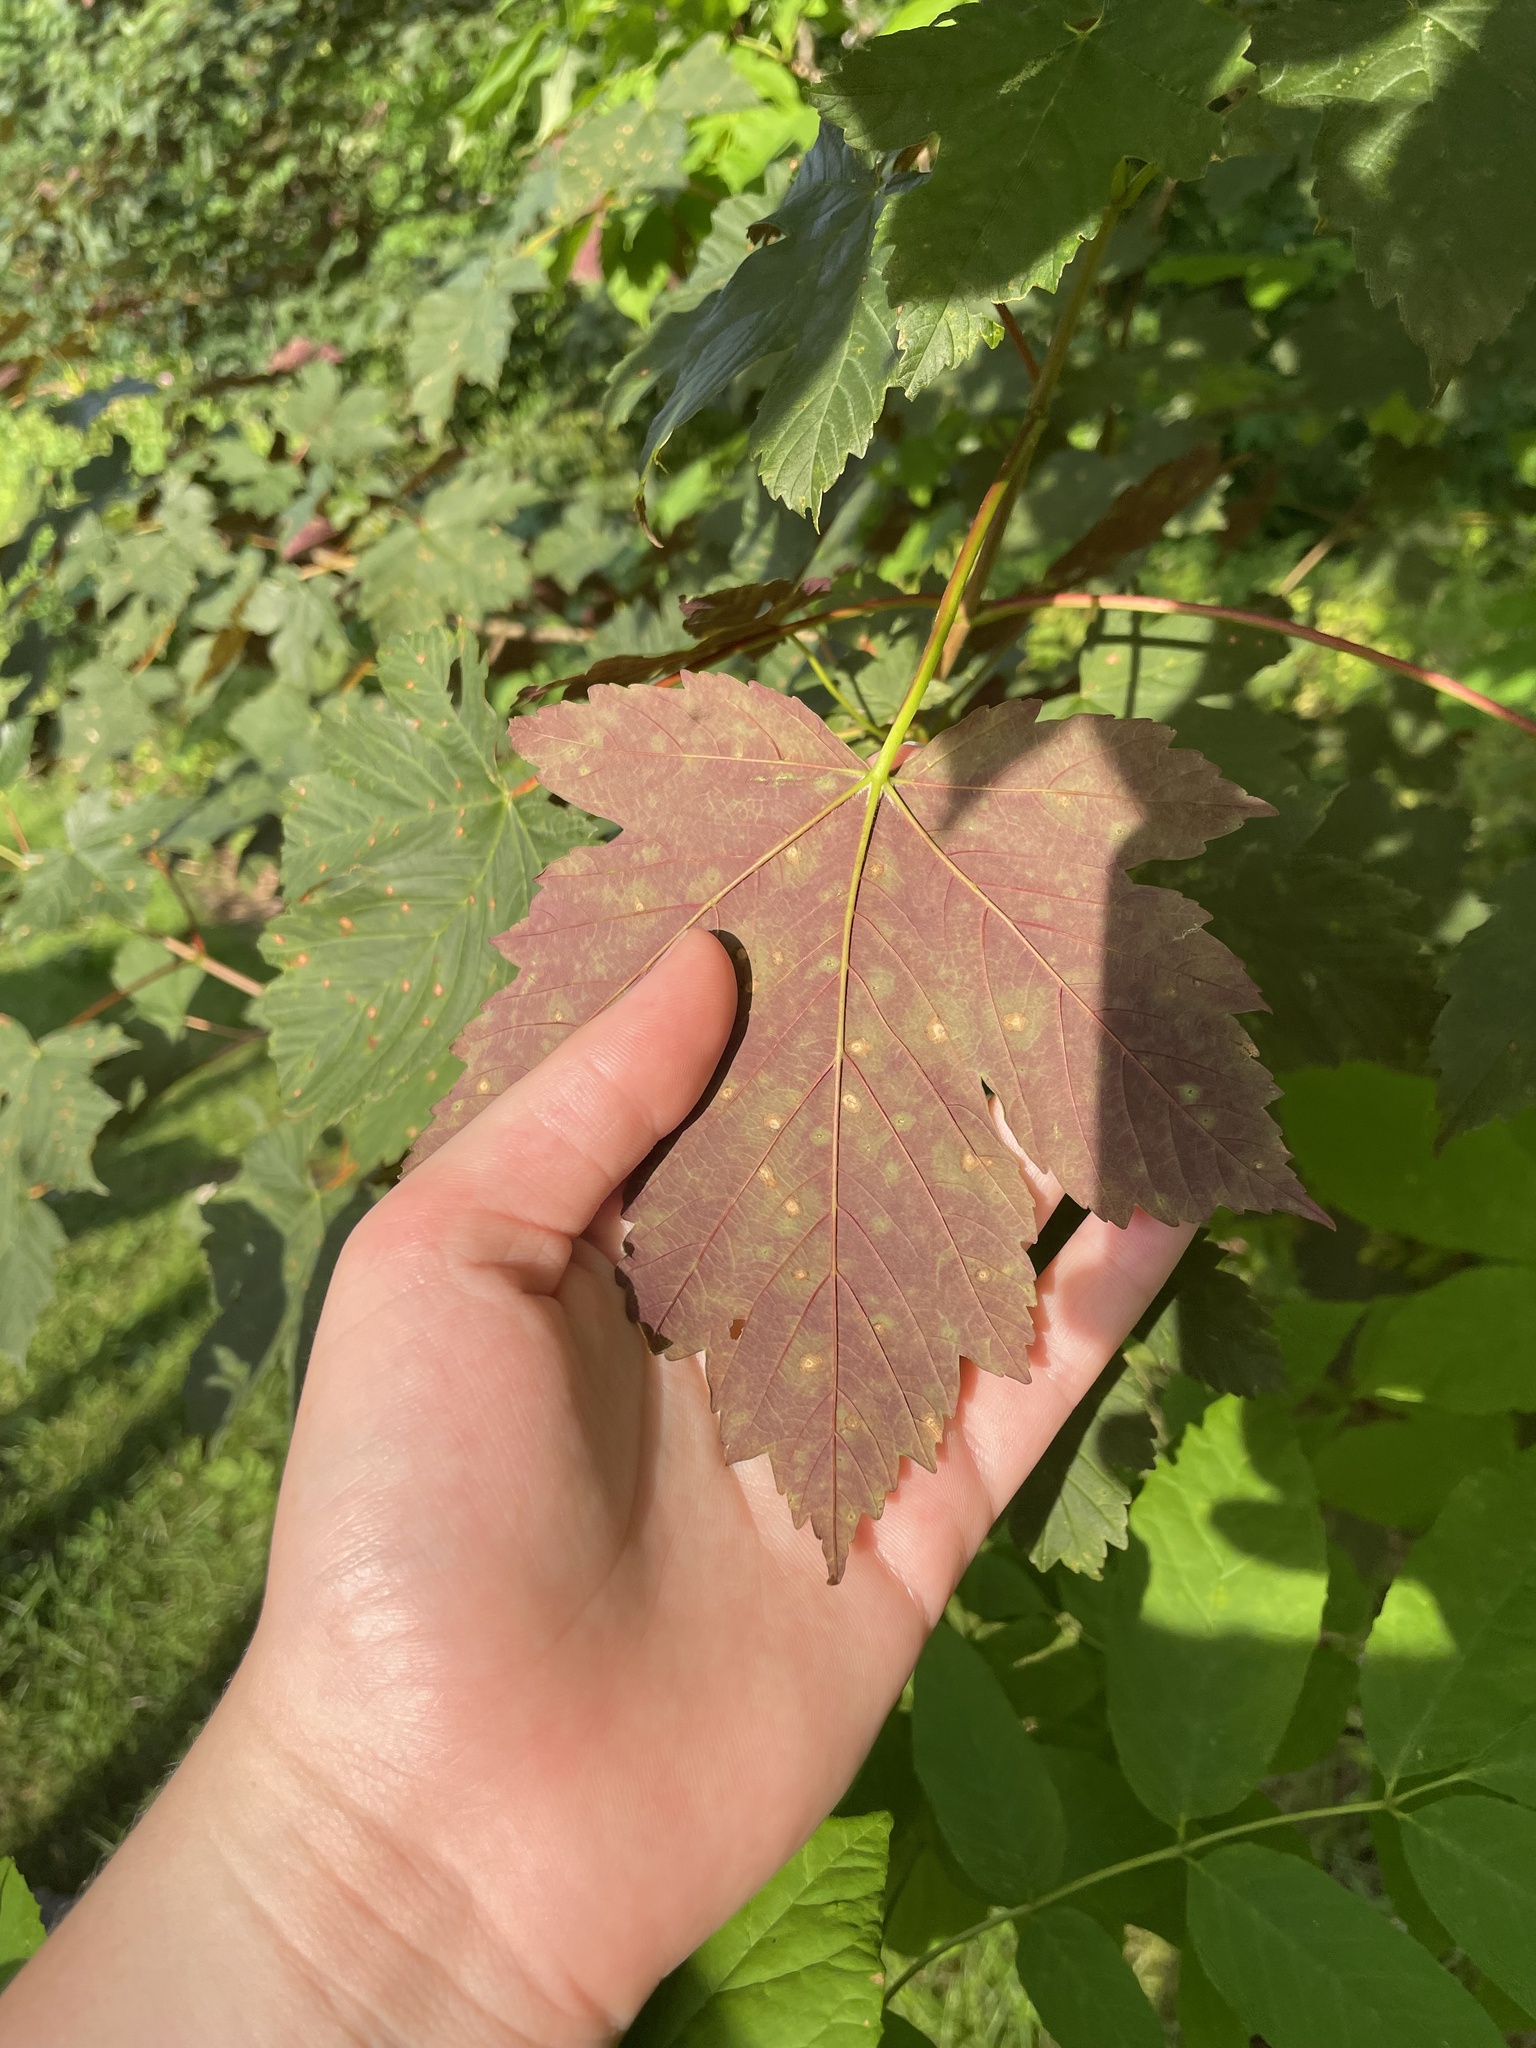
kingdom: Plantae
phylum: Tracheophyta
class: Magnoliopsida
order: Sapindales
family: Sapindaceae
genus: Acer
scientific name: Acer pseudoplatanus
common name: Sycamore
